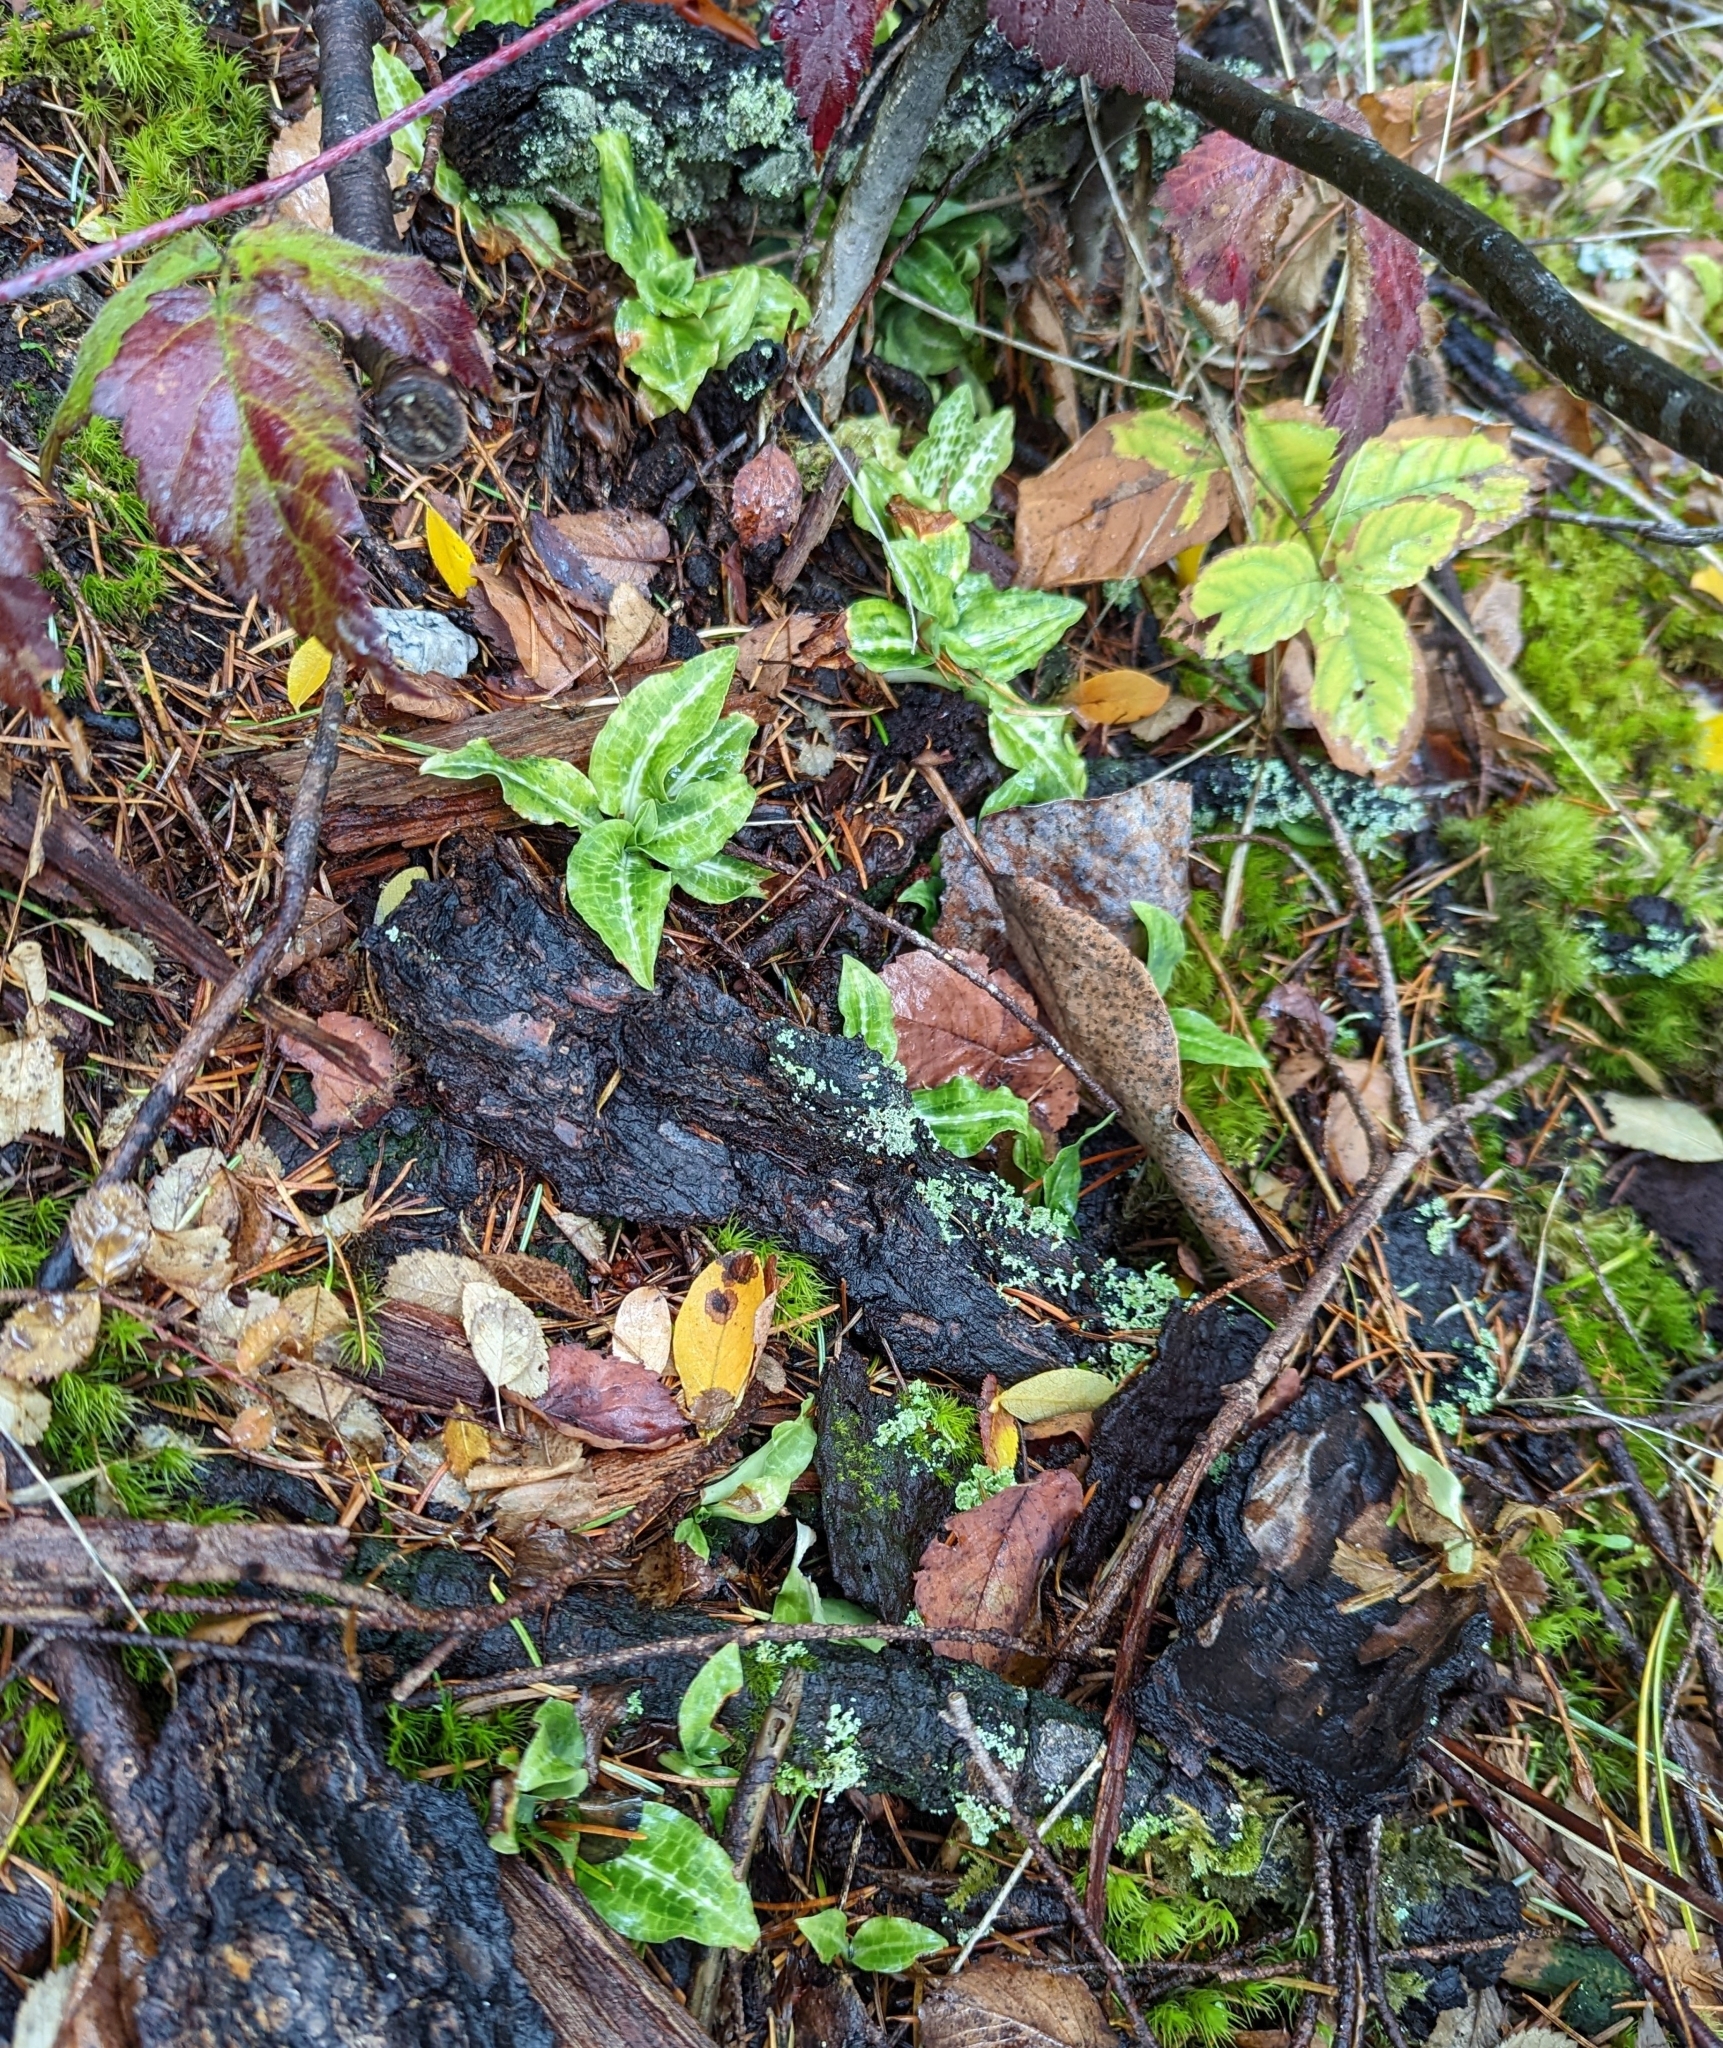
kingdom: Plantae
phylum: Tracheophyta
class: Liliopsida
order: Asparagales
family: Orchidaceae
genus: Goodyera
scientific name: Goodyera oblongifolia
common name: Giant rattlesnake-plantain
